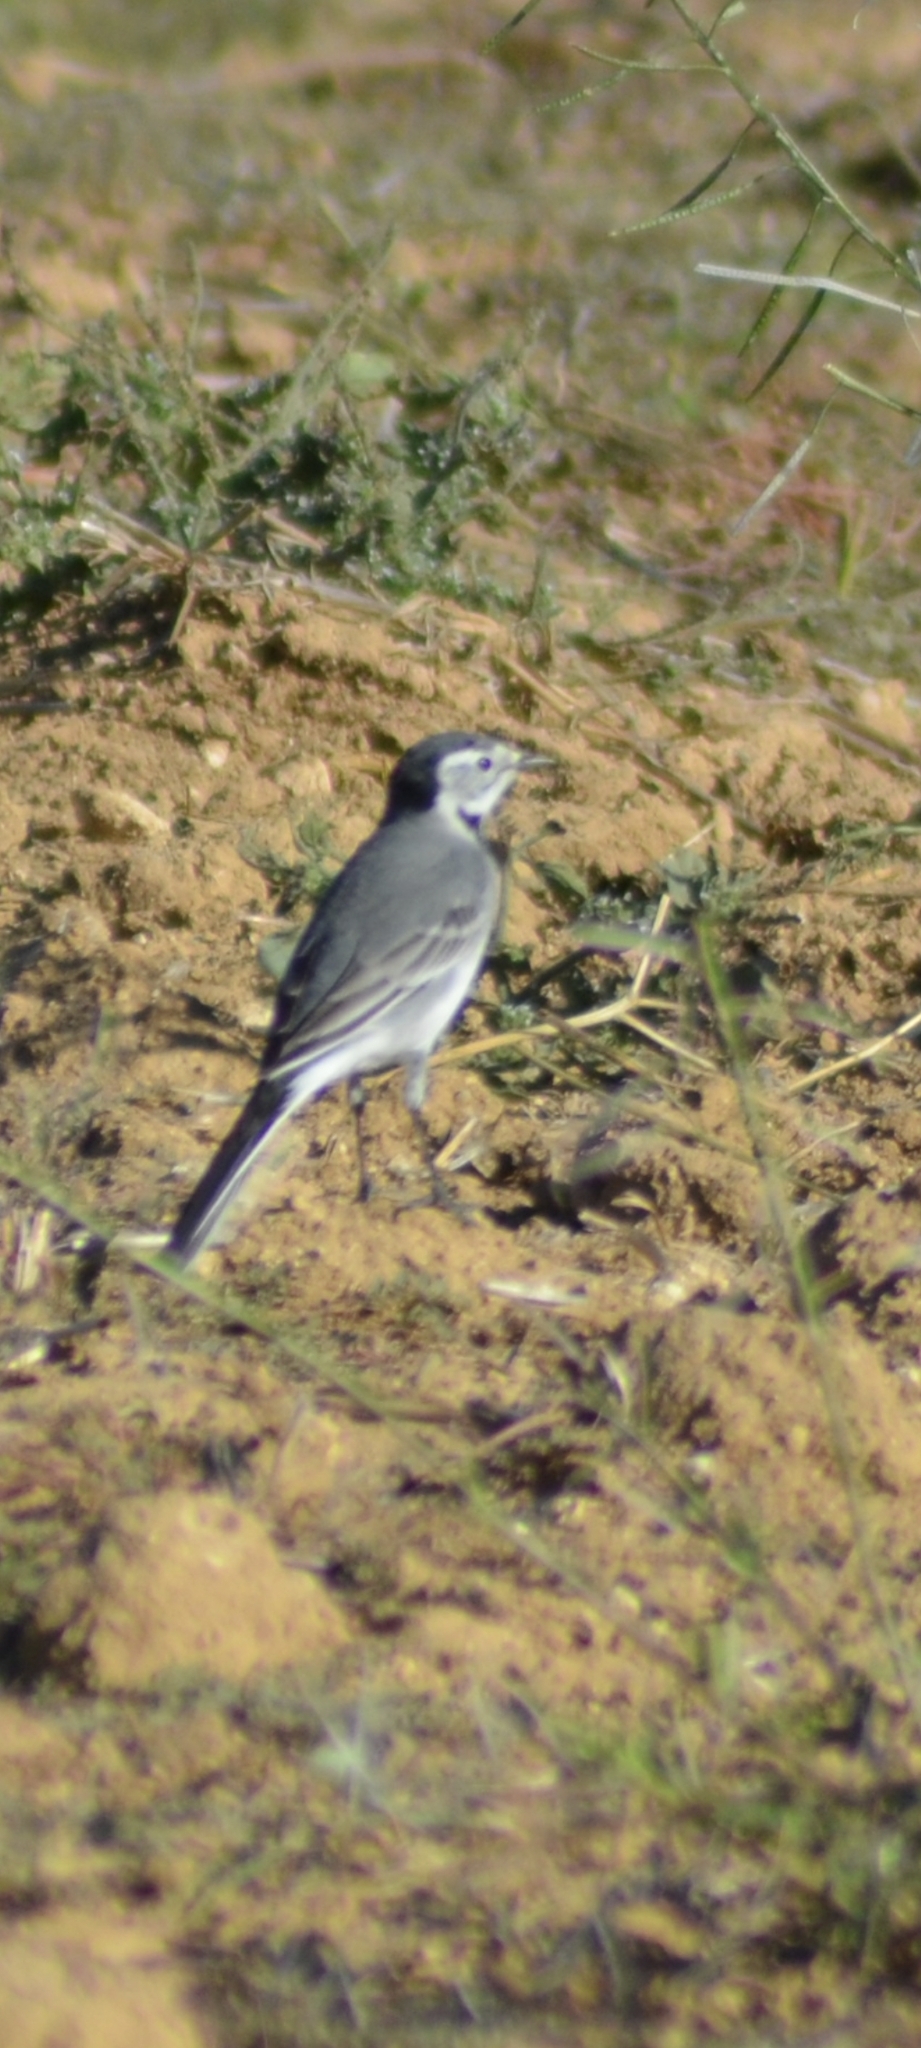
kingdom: Animalia
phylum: Chordata
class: Aves
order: Passeriformes
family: Motacillidae
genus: Motacilla
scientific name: Motacilla alba
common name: White wagtail
